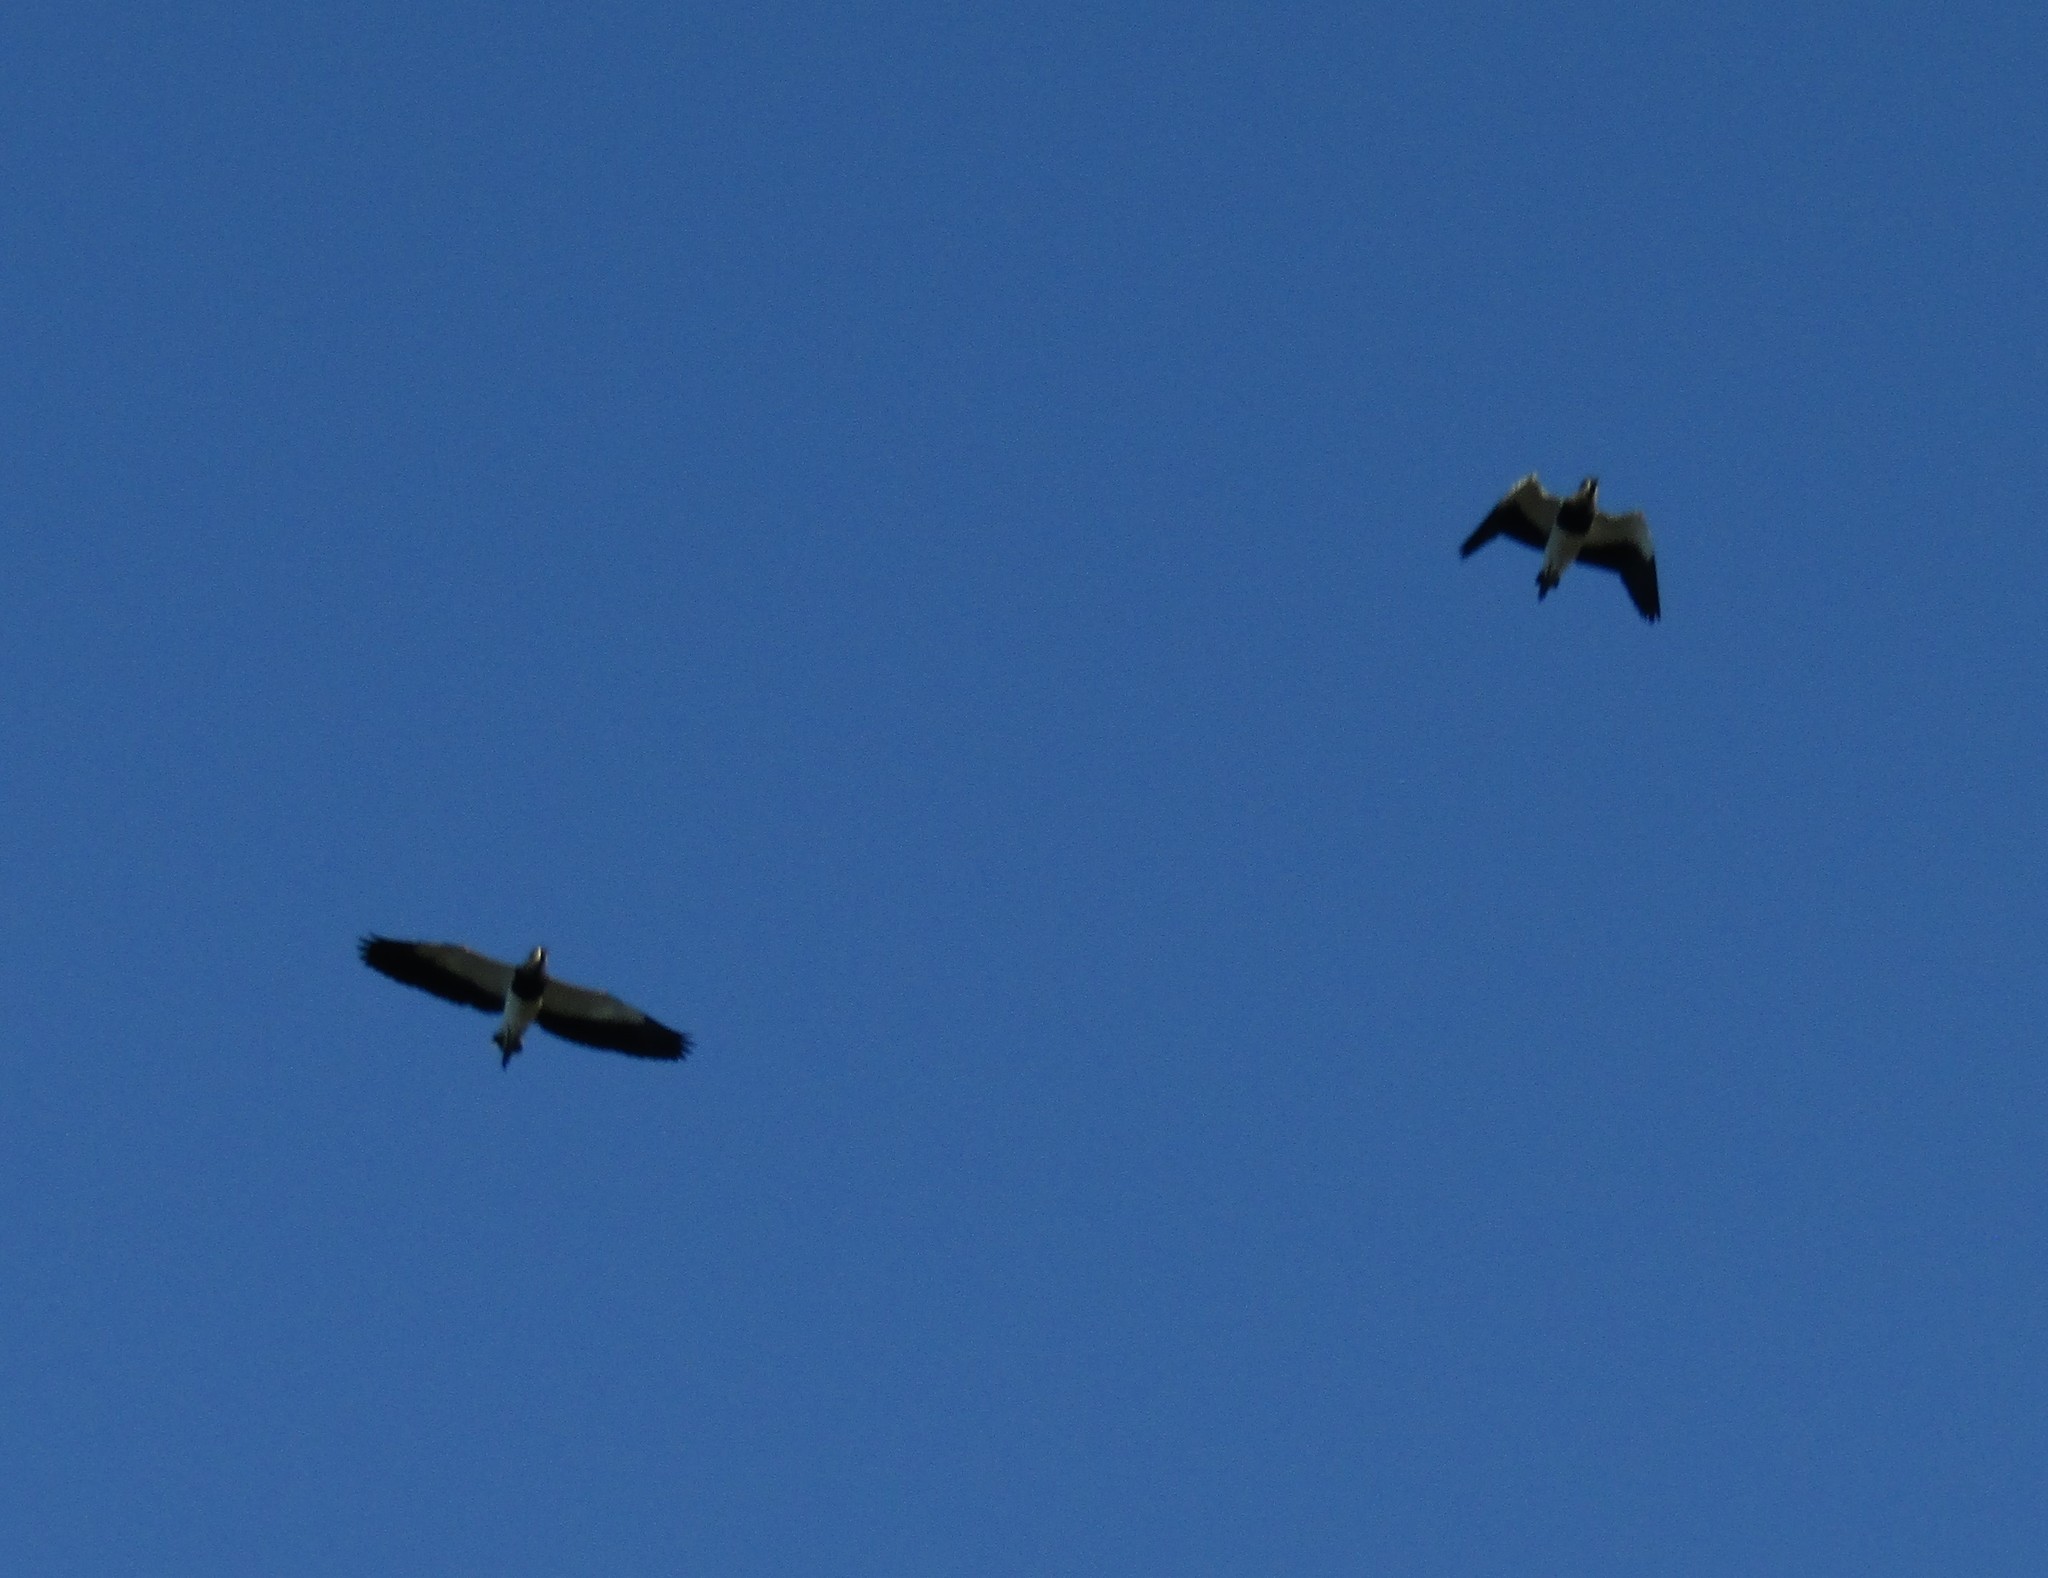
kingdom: Animalia
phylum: Chordata
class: Aves
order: Charadriiformes
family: Charadriidae
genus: Vanellus
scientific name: Vanellus chilensis
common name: Southern lapwing
